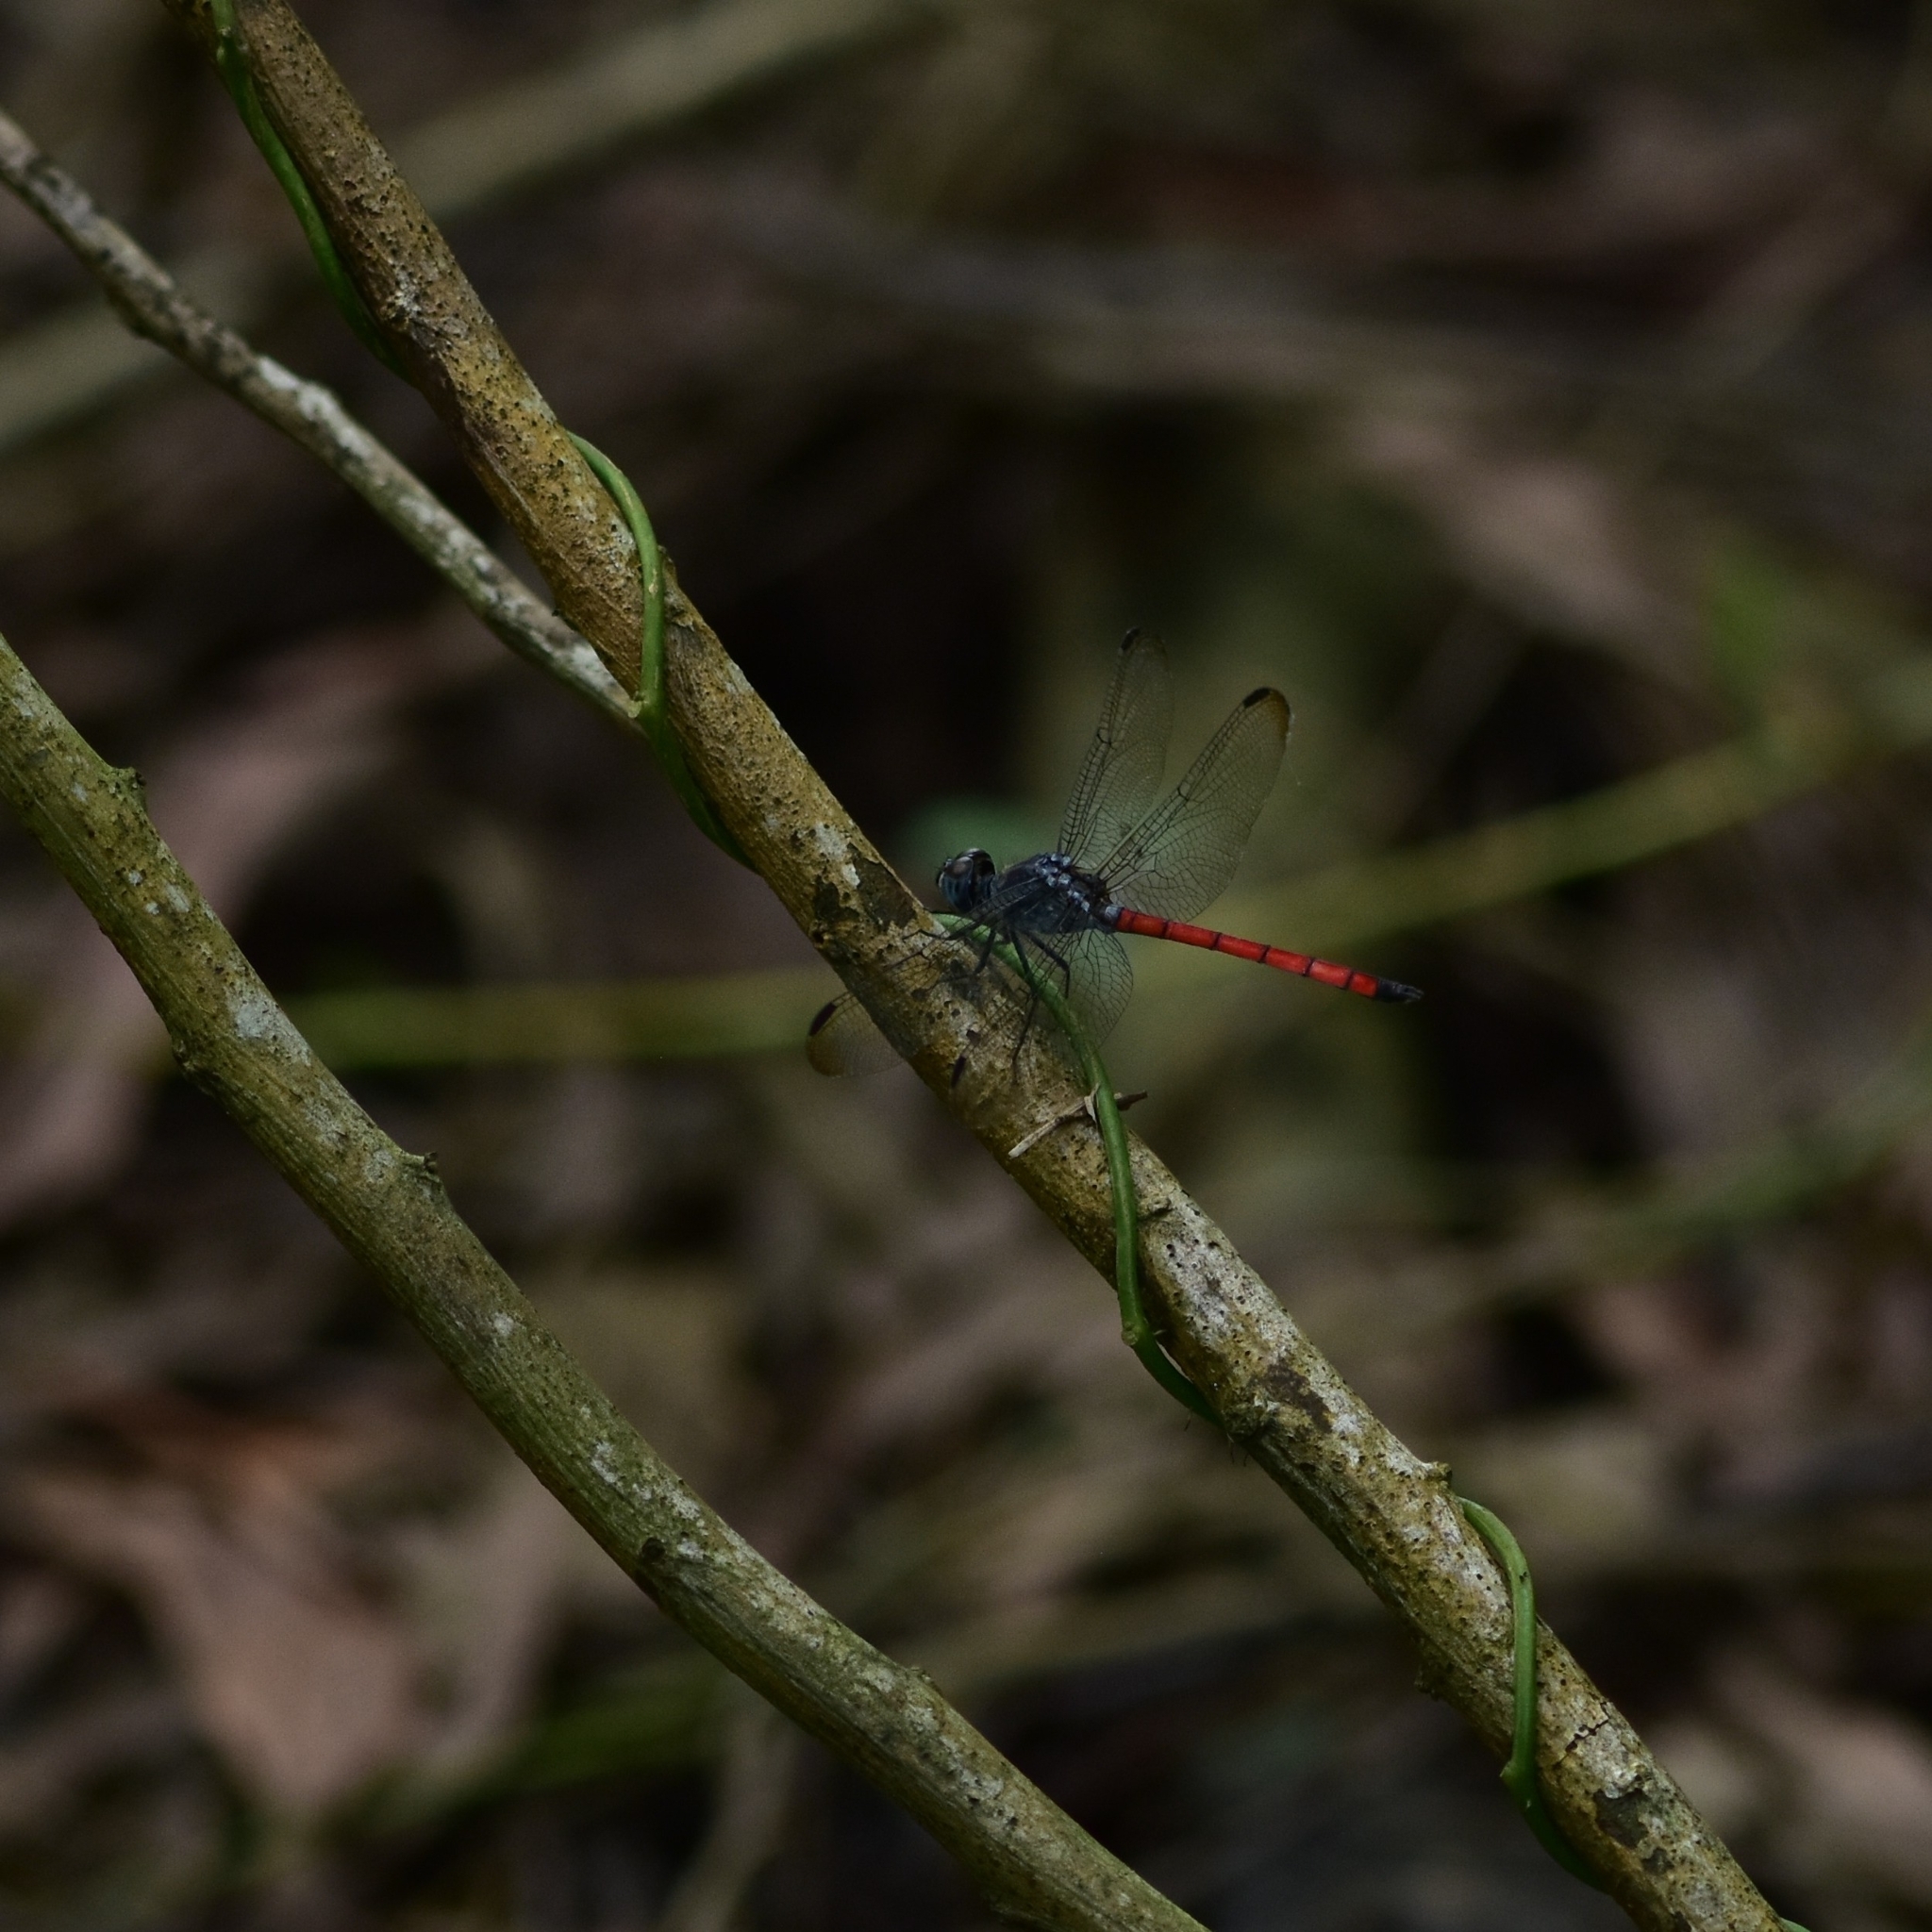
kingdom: Animalia
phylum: Arthropoda
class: Insecta
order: Odonata
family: Libellulidae
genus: Lathrecista
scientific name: Lathrecista asiatica
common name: Scarlet grenadier
